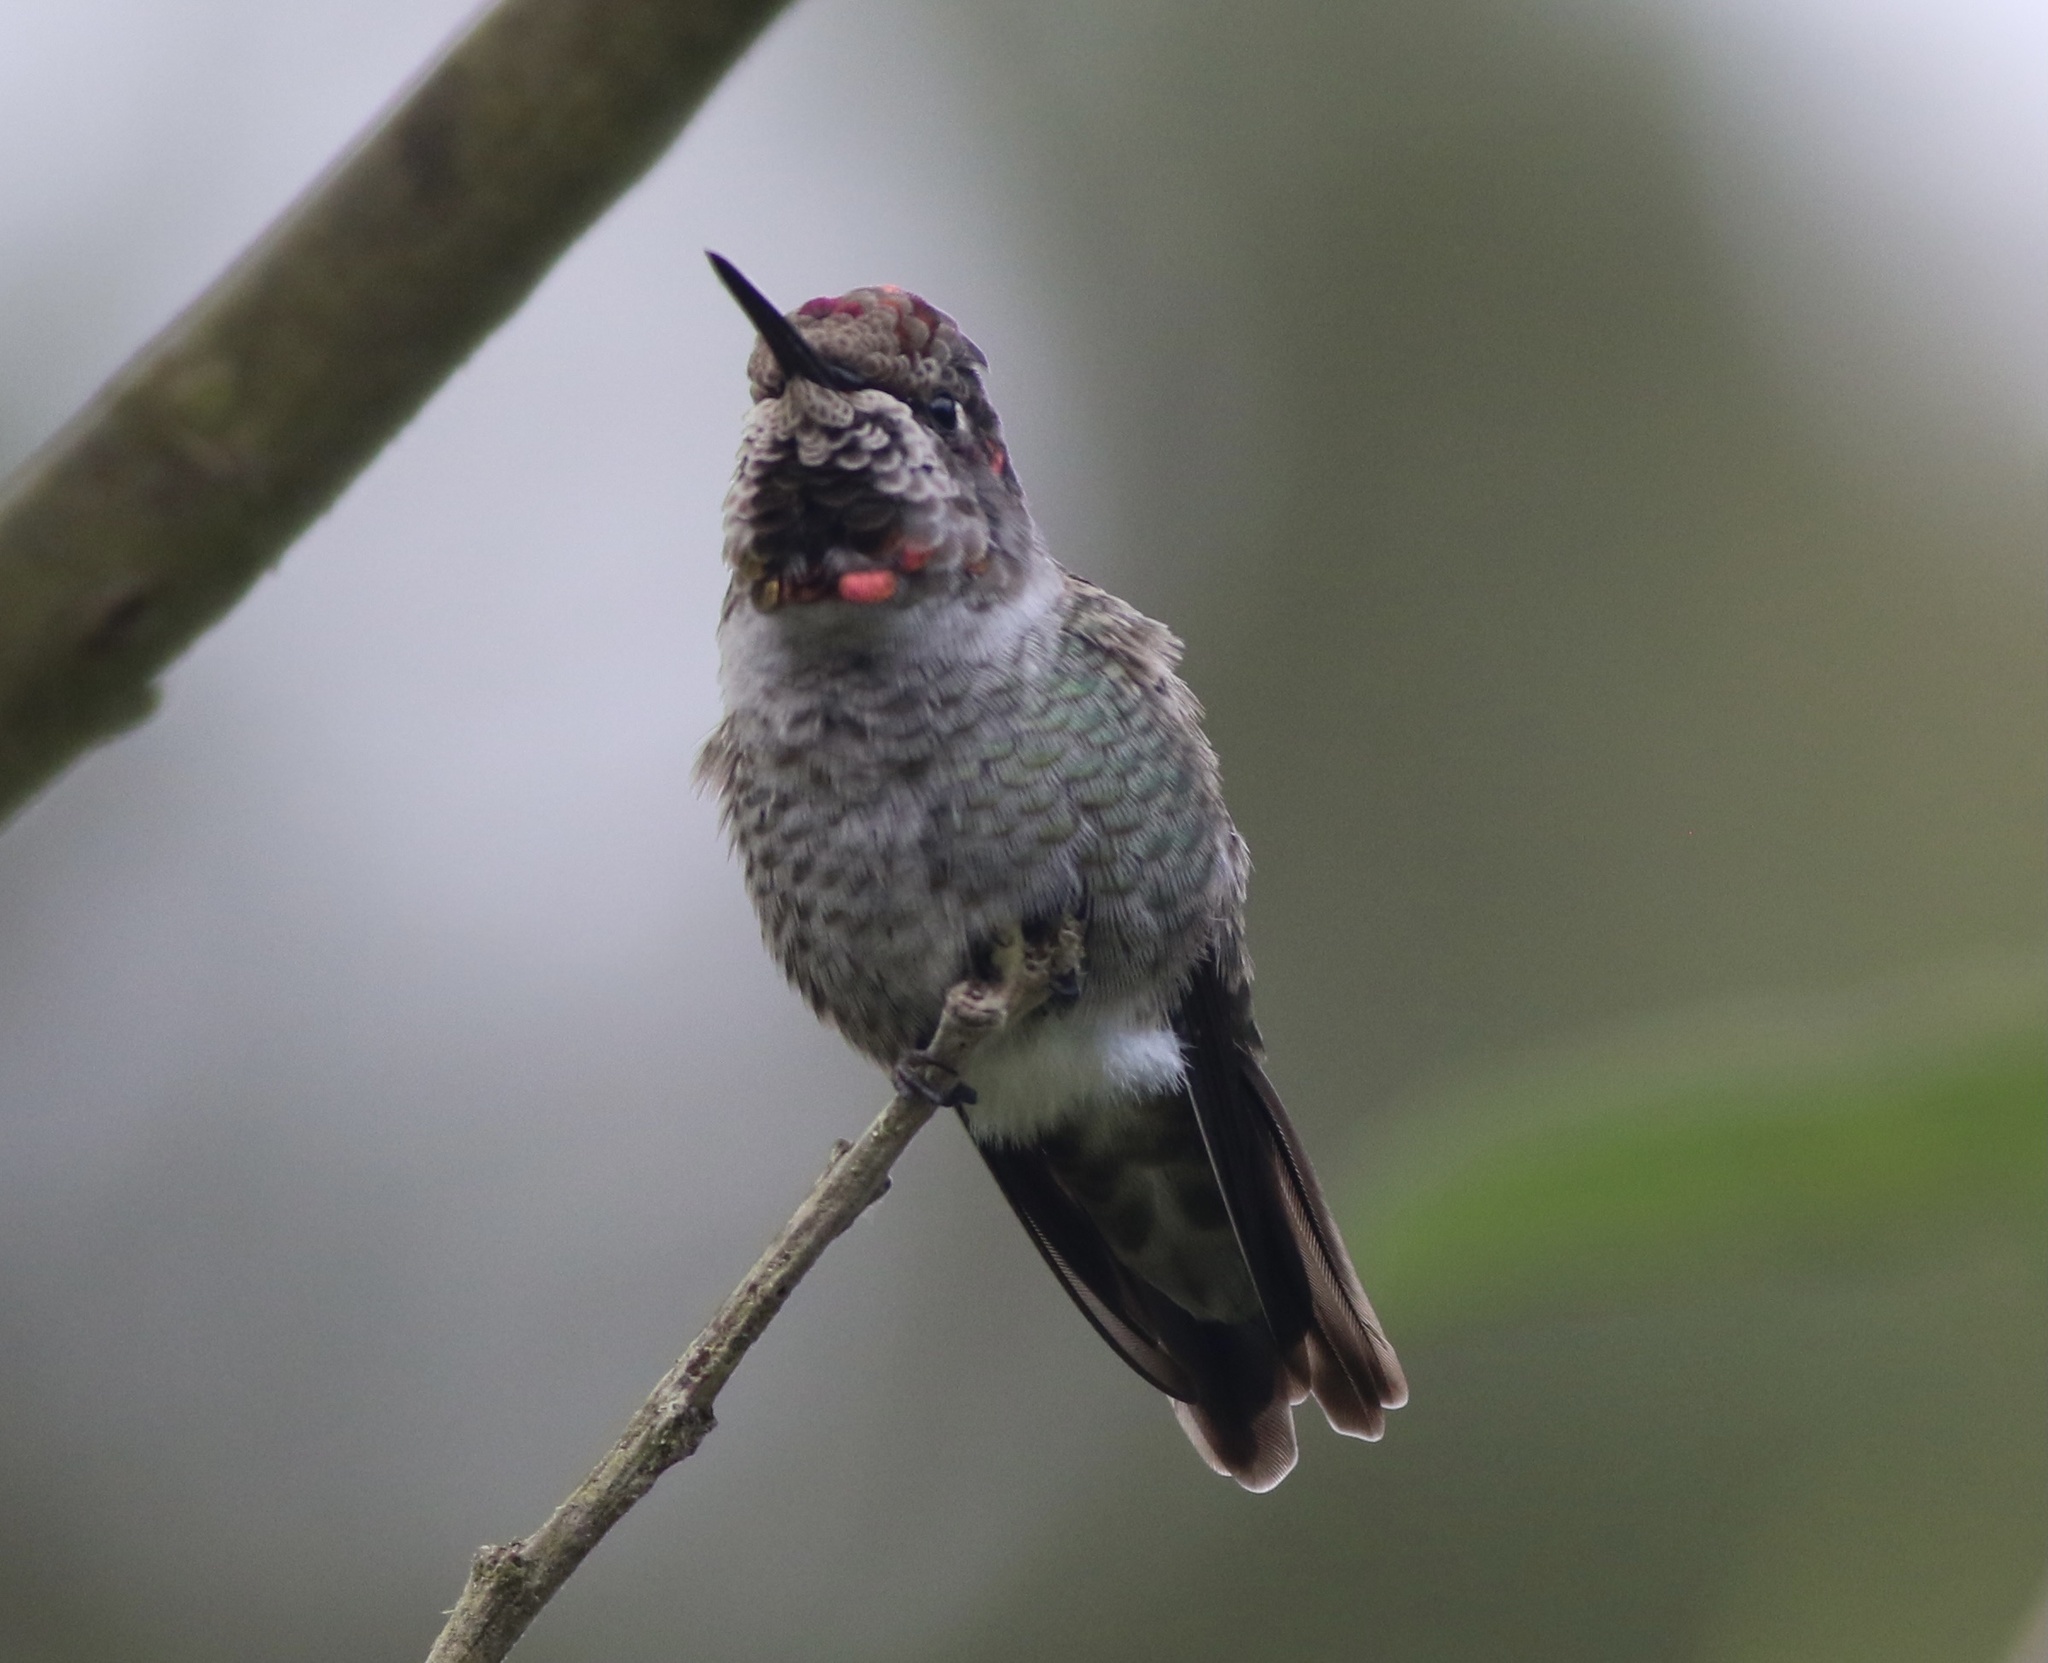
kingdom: Animalia
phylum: Chordata
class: Aves
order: Apodiformes
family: Trochilidae
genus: Calypte
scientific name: Calypte anna
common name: Anna's hummingbird
